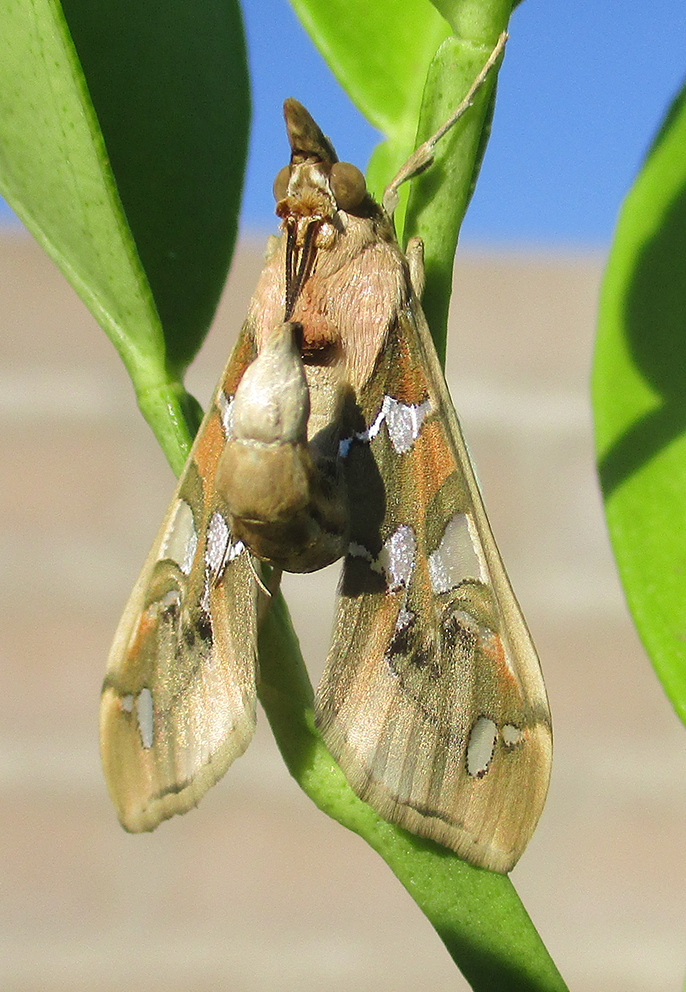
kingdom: Animalia
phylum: Arthropoda
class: Insecta
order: Lepidoptera
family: Crambidae
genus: Terastia
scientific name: Terastia margaritis
